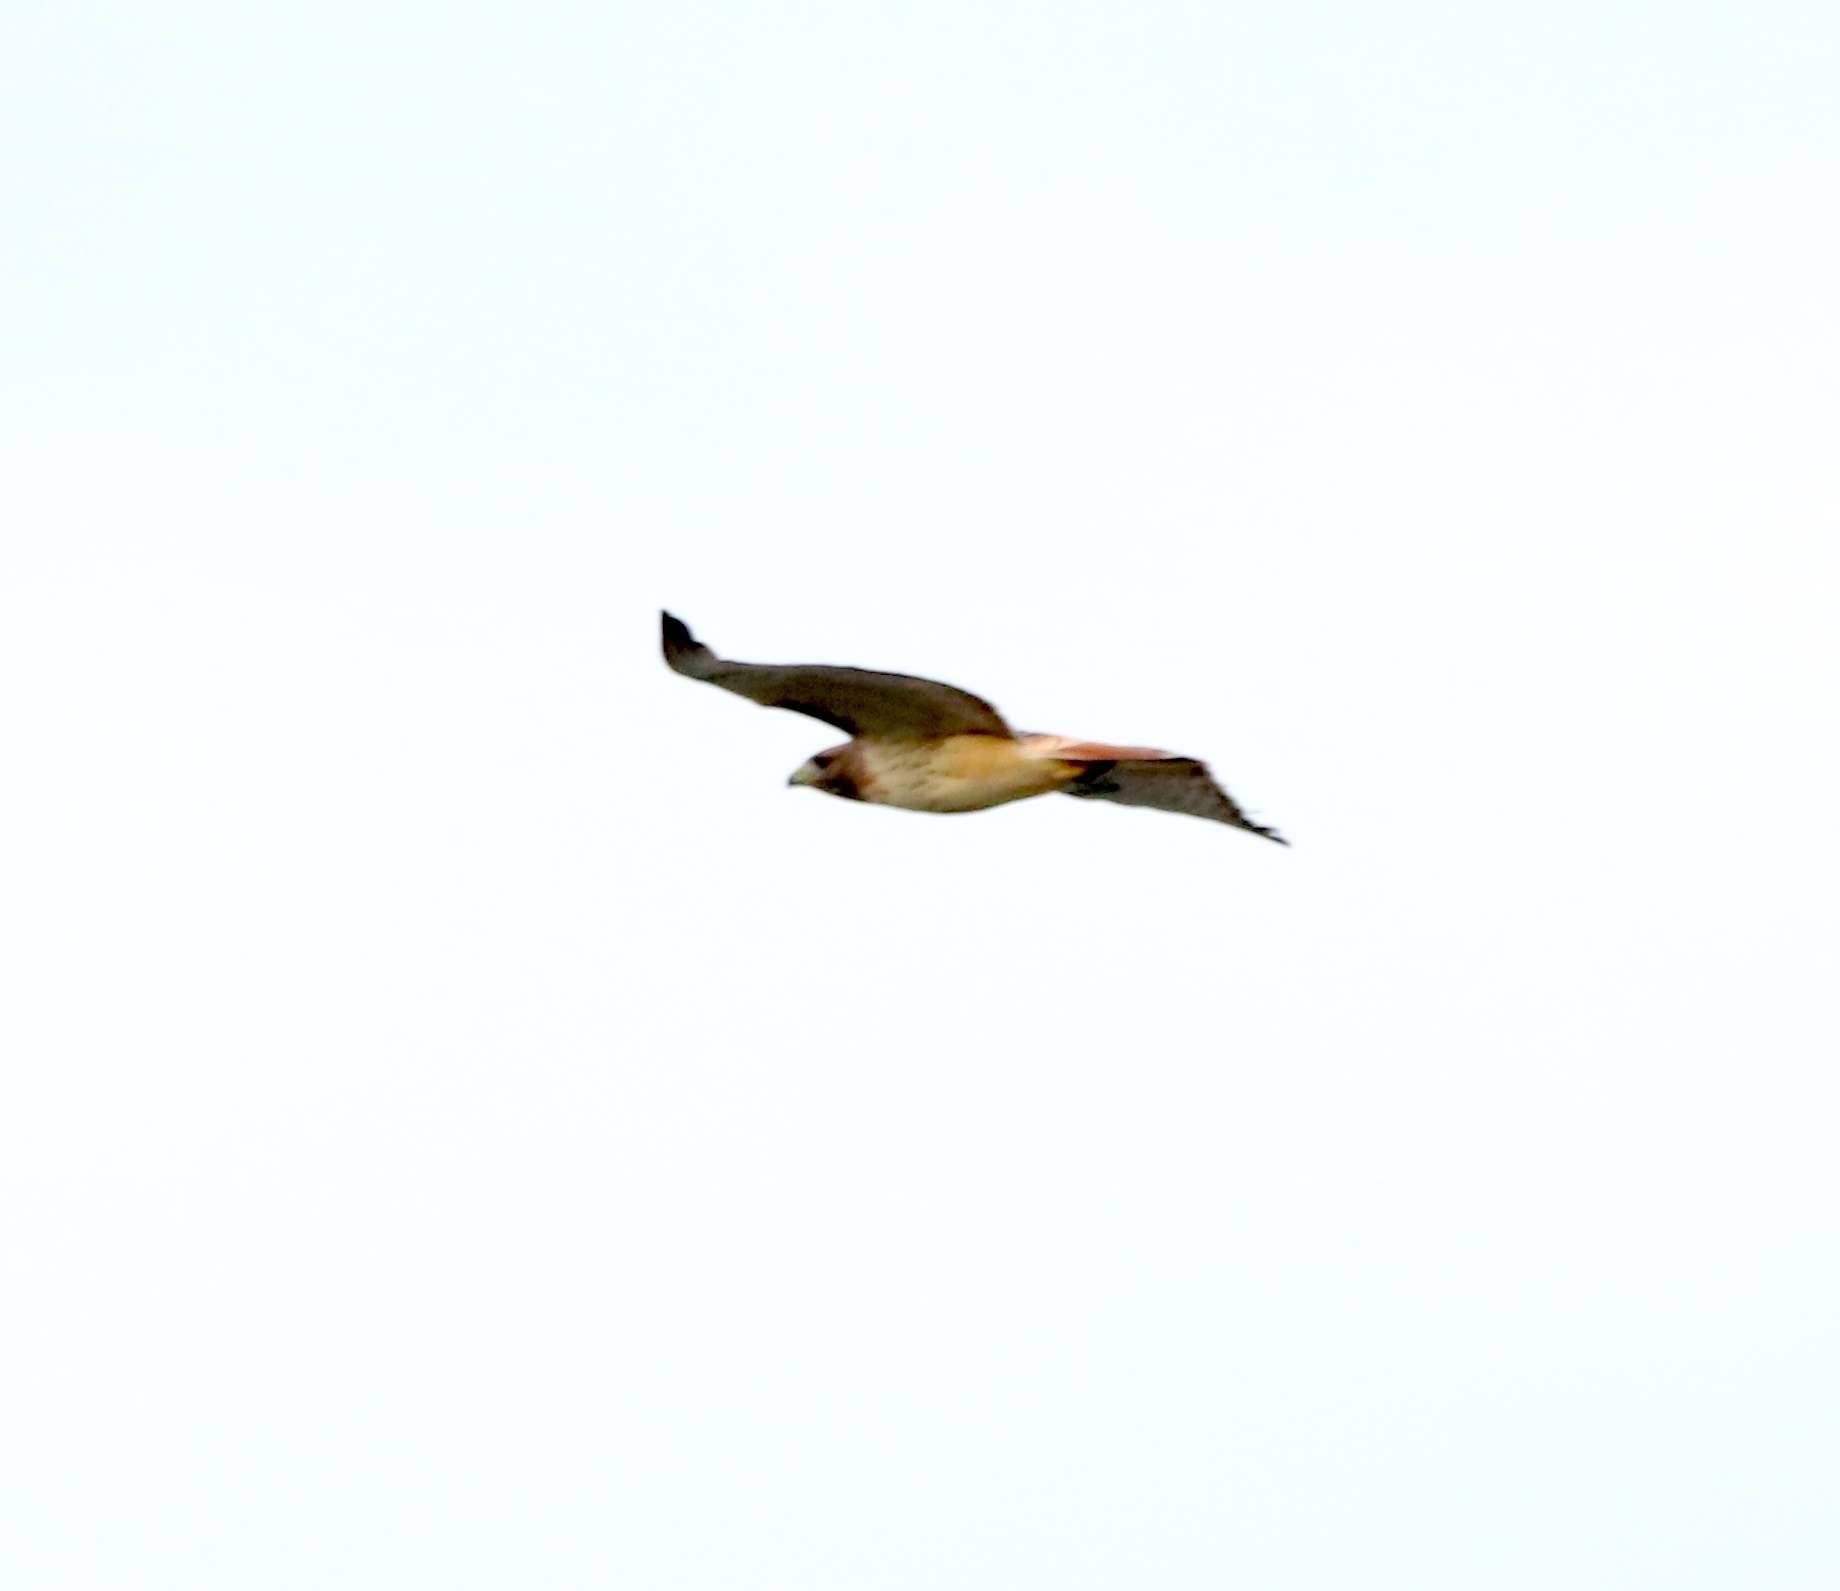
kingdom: Animalia
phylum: Chordata
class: Aves
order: Accipitriformes
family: Accipitridae
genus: Buteo
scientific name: Buteo jamaicensis
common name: Red-tailed hawk
